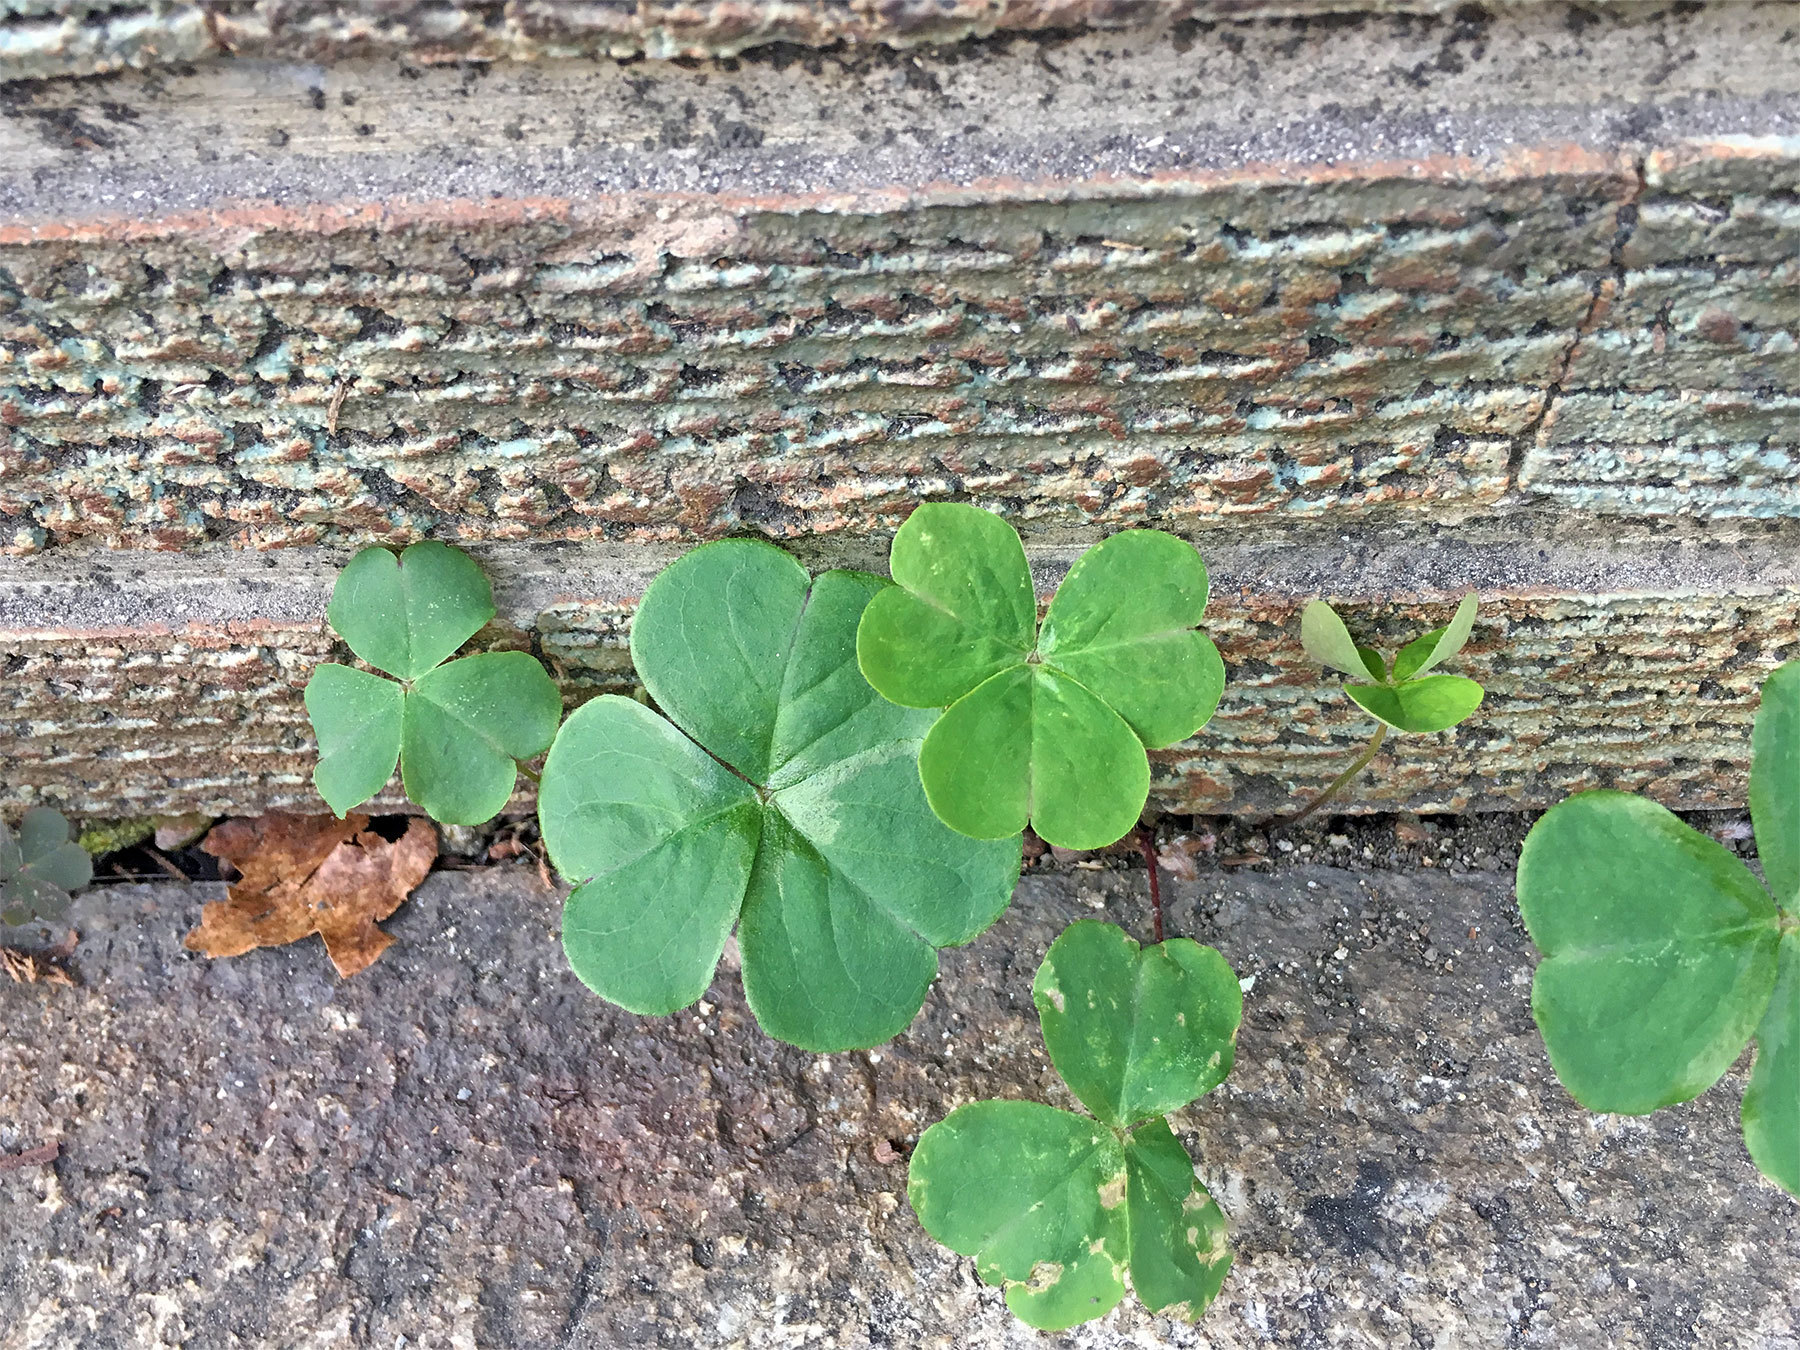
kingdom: Plantae
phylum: Tracheophyta
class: Magnoliopsida
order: Oxalidales
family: Oxalidaceae
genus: Oxalis
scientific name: Oxalis debilis
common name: Large-flowered pink-sorrel
